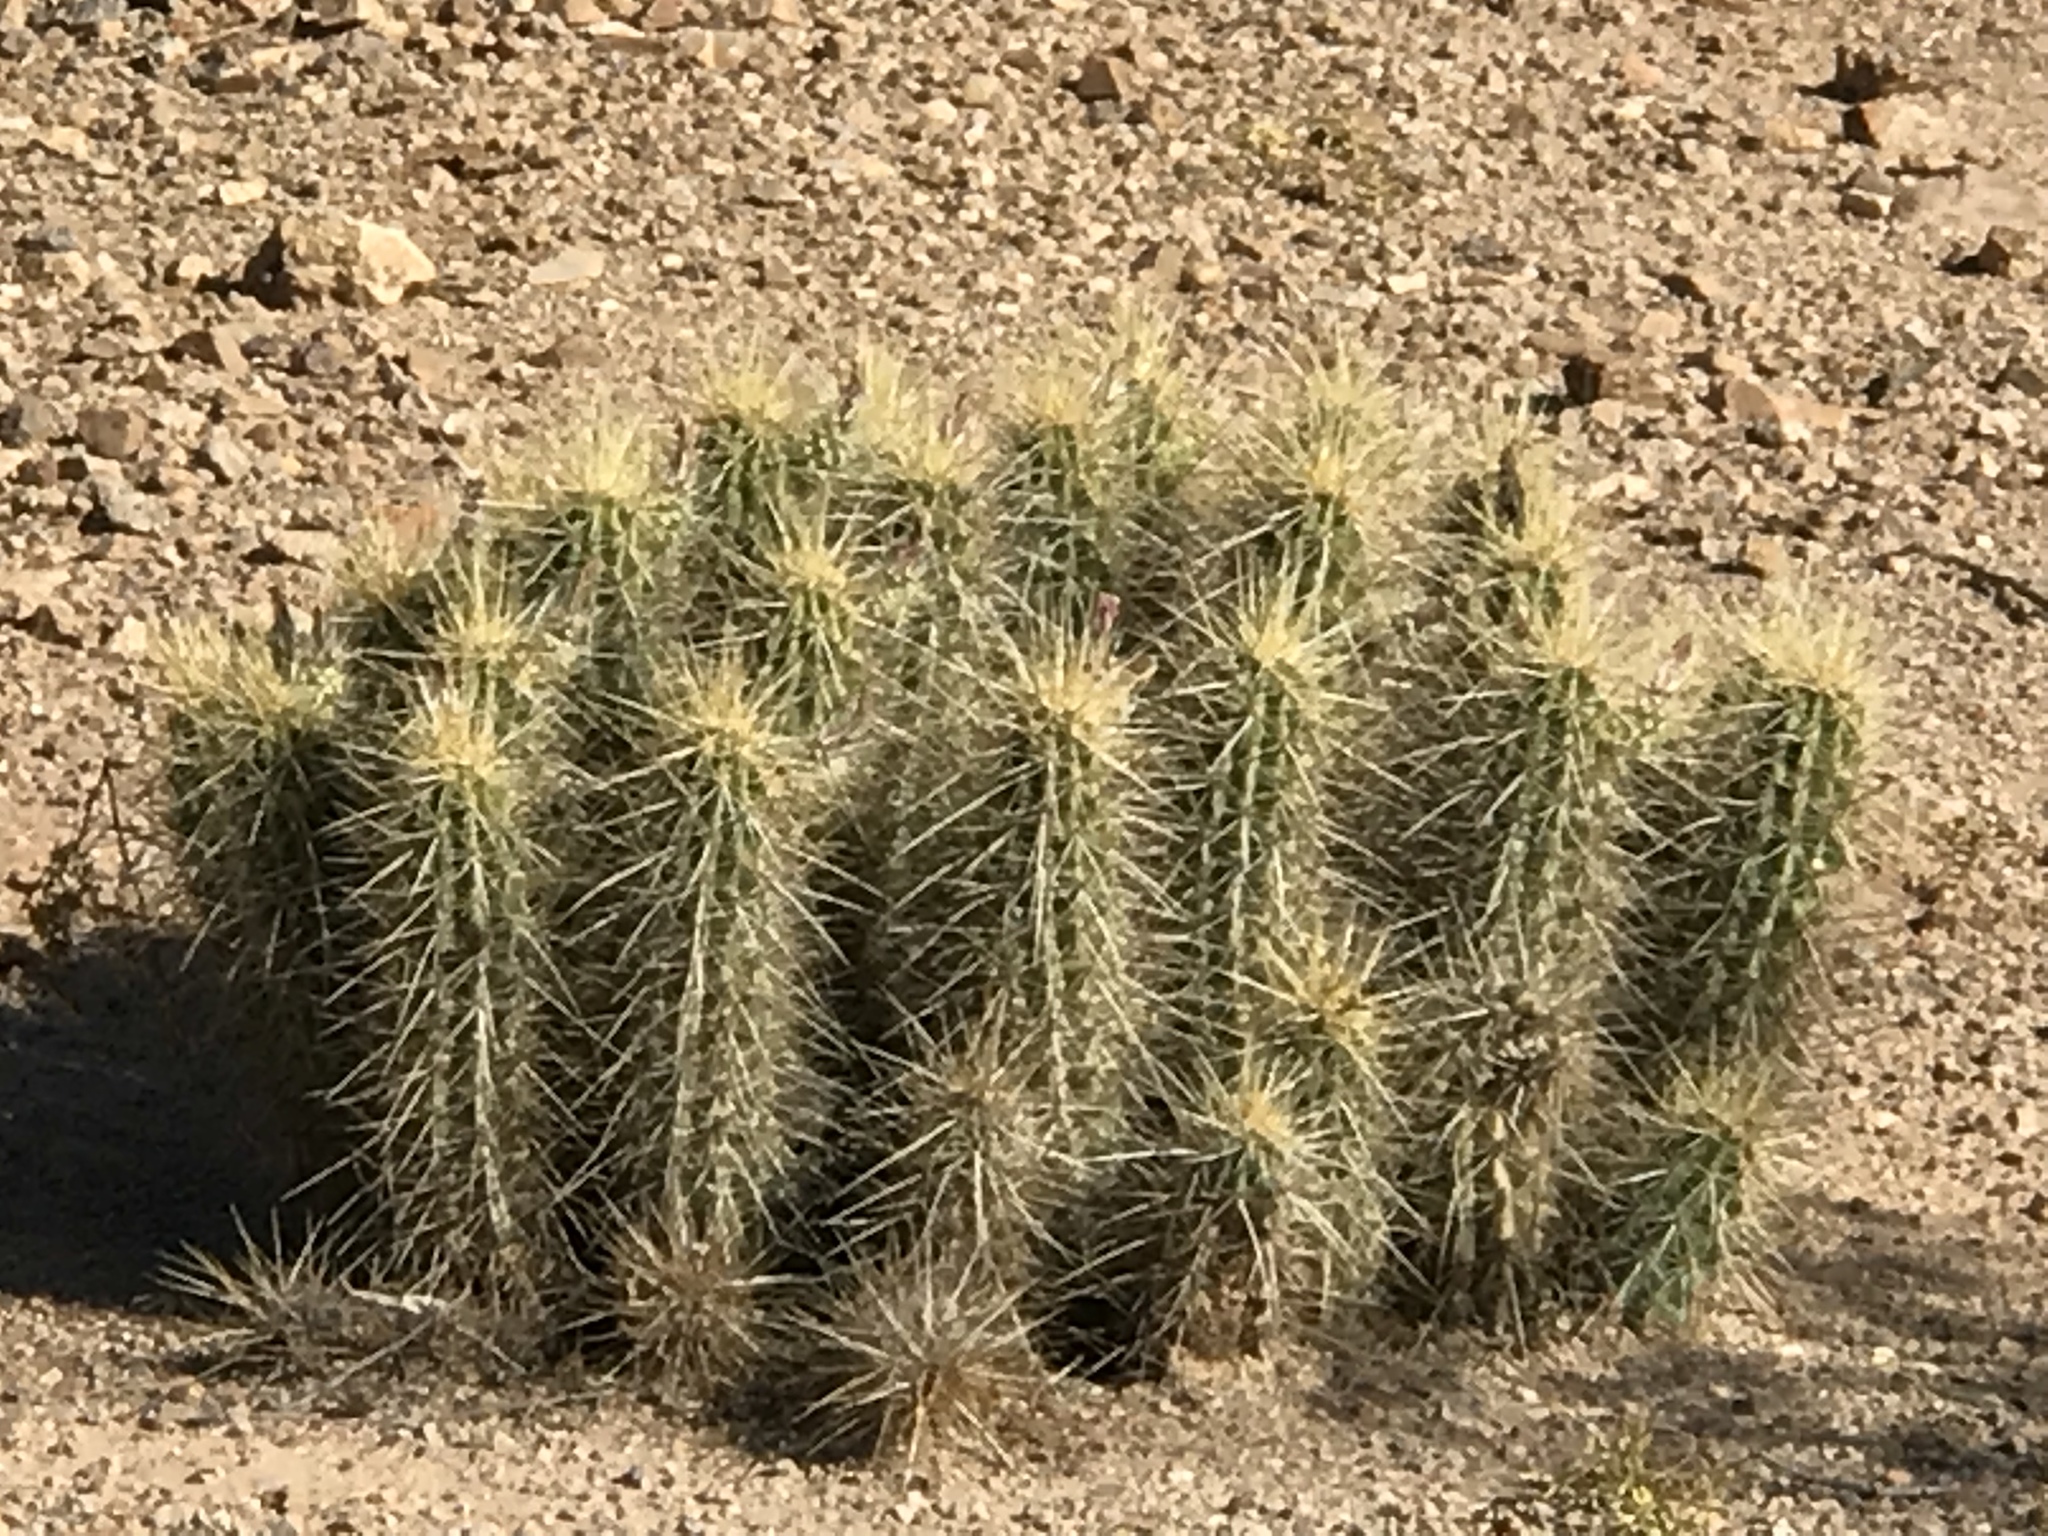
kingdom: Plantae
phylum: Tracheophyta
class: Magnoliopsida
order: Caryophyllales
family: Cactaceae
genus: Echinocereus
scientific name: Echinocereus nicholii
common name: Nichol's hedgehog cactus
